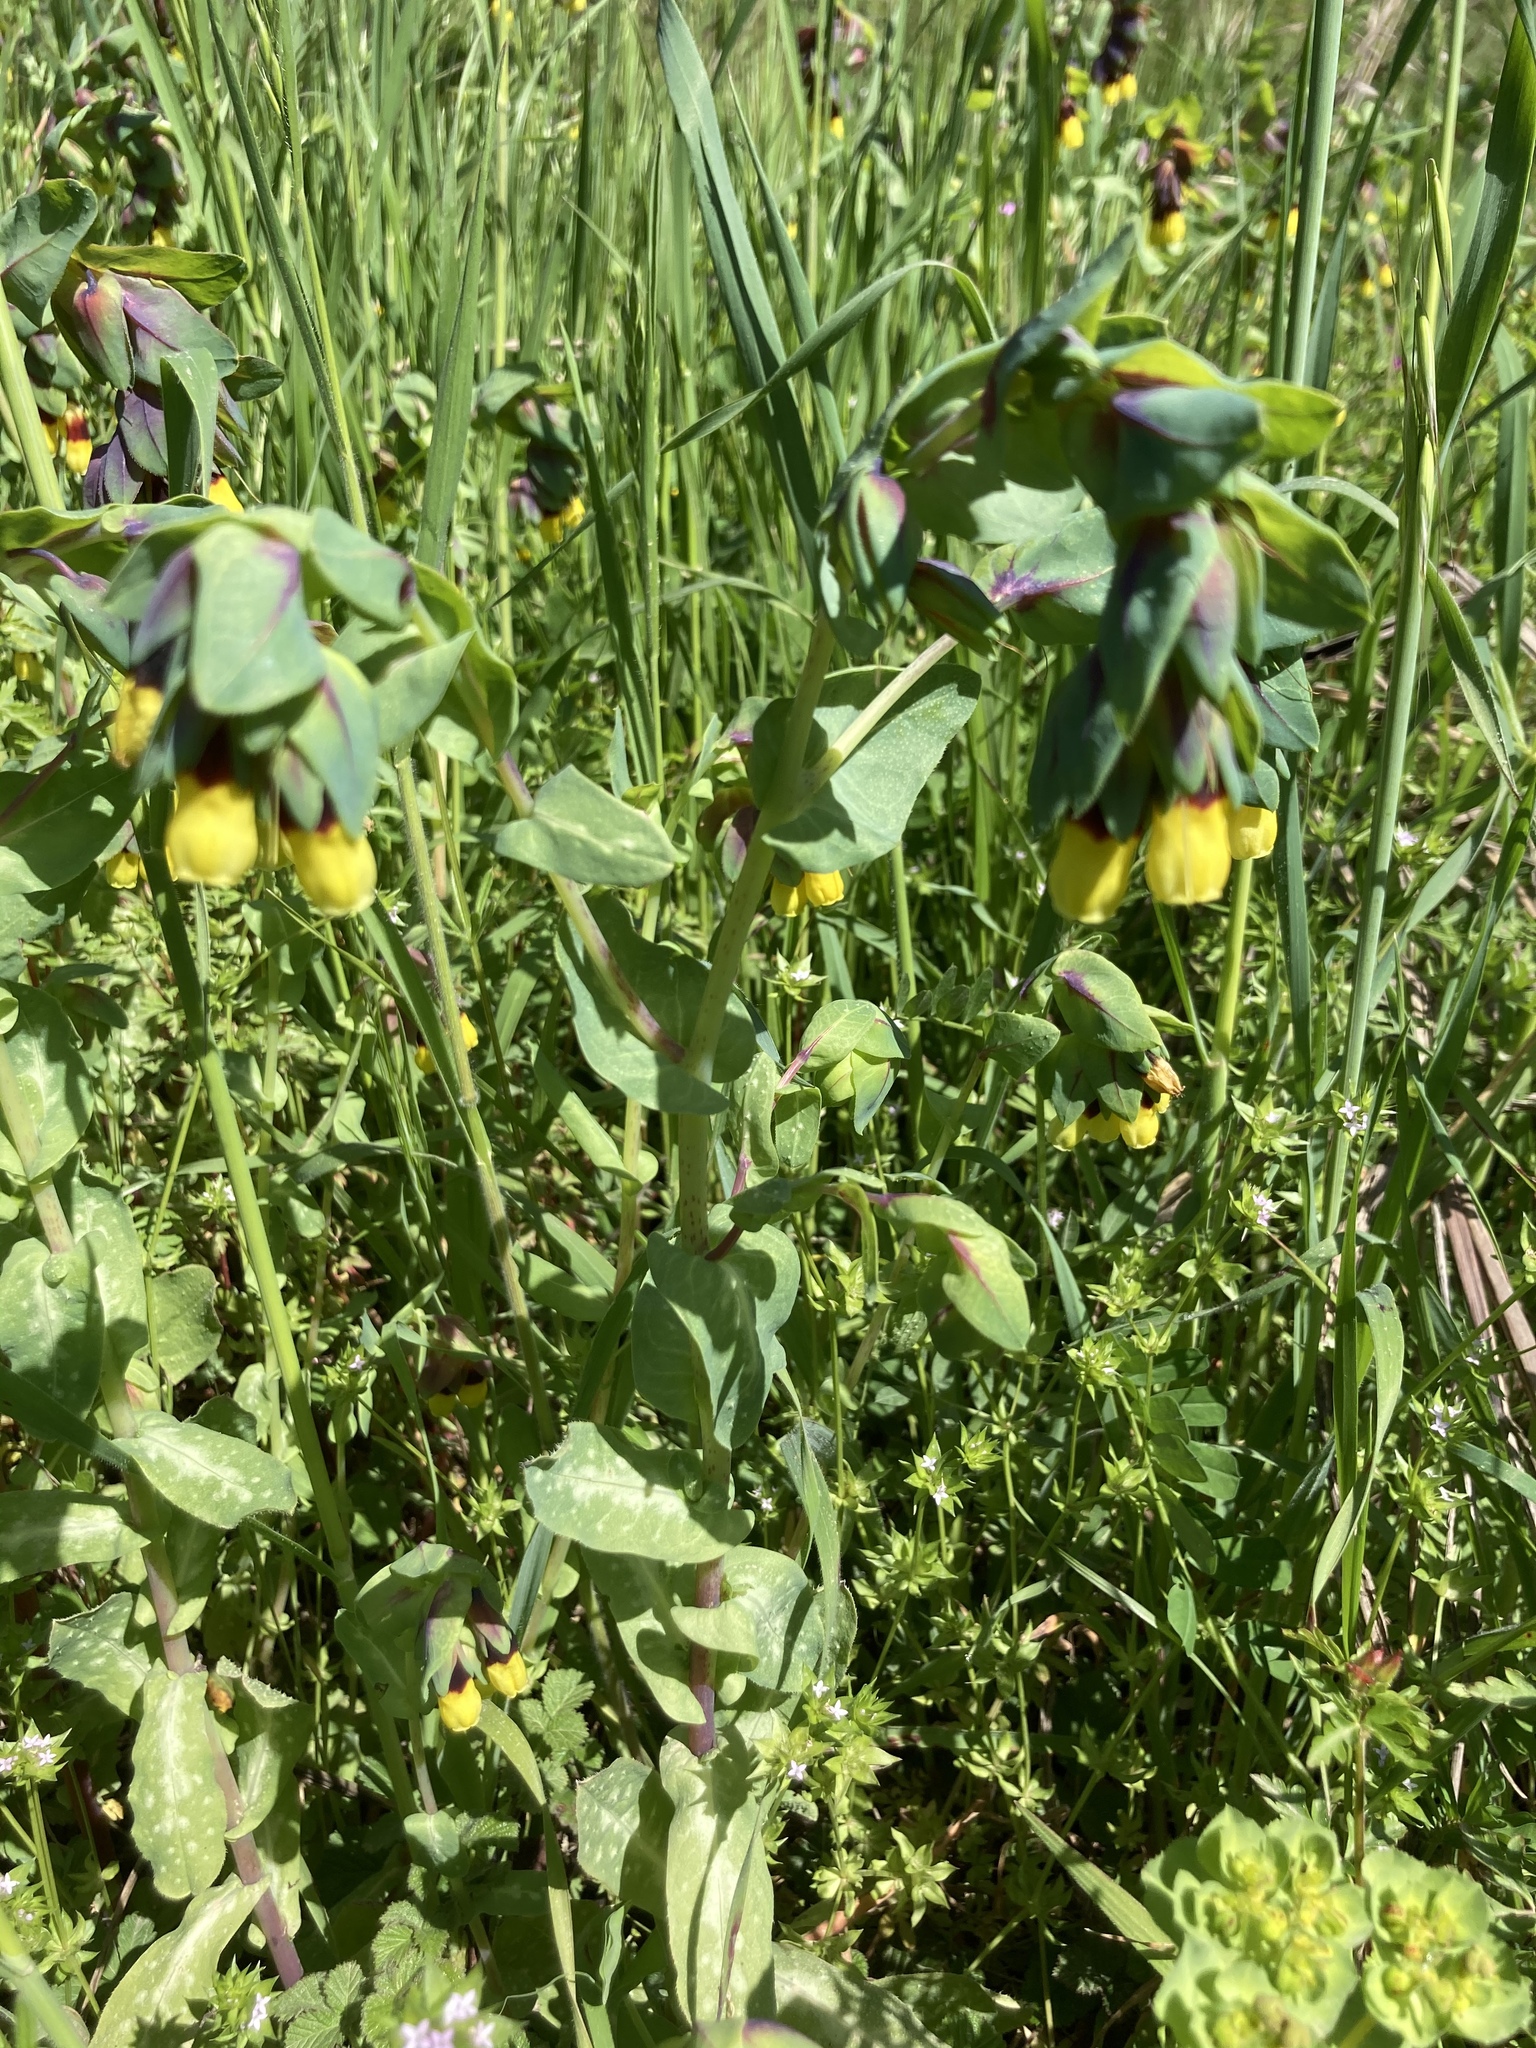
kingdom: Plantae
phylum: Tracheophyta
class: Magnoliopsida
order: Gentianales
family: Rubiaceae
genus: Sherardia
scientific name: Sherardia arvensis
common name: Field madder
